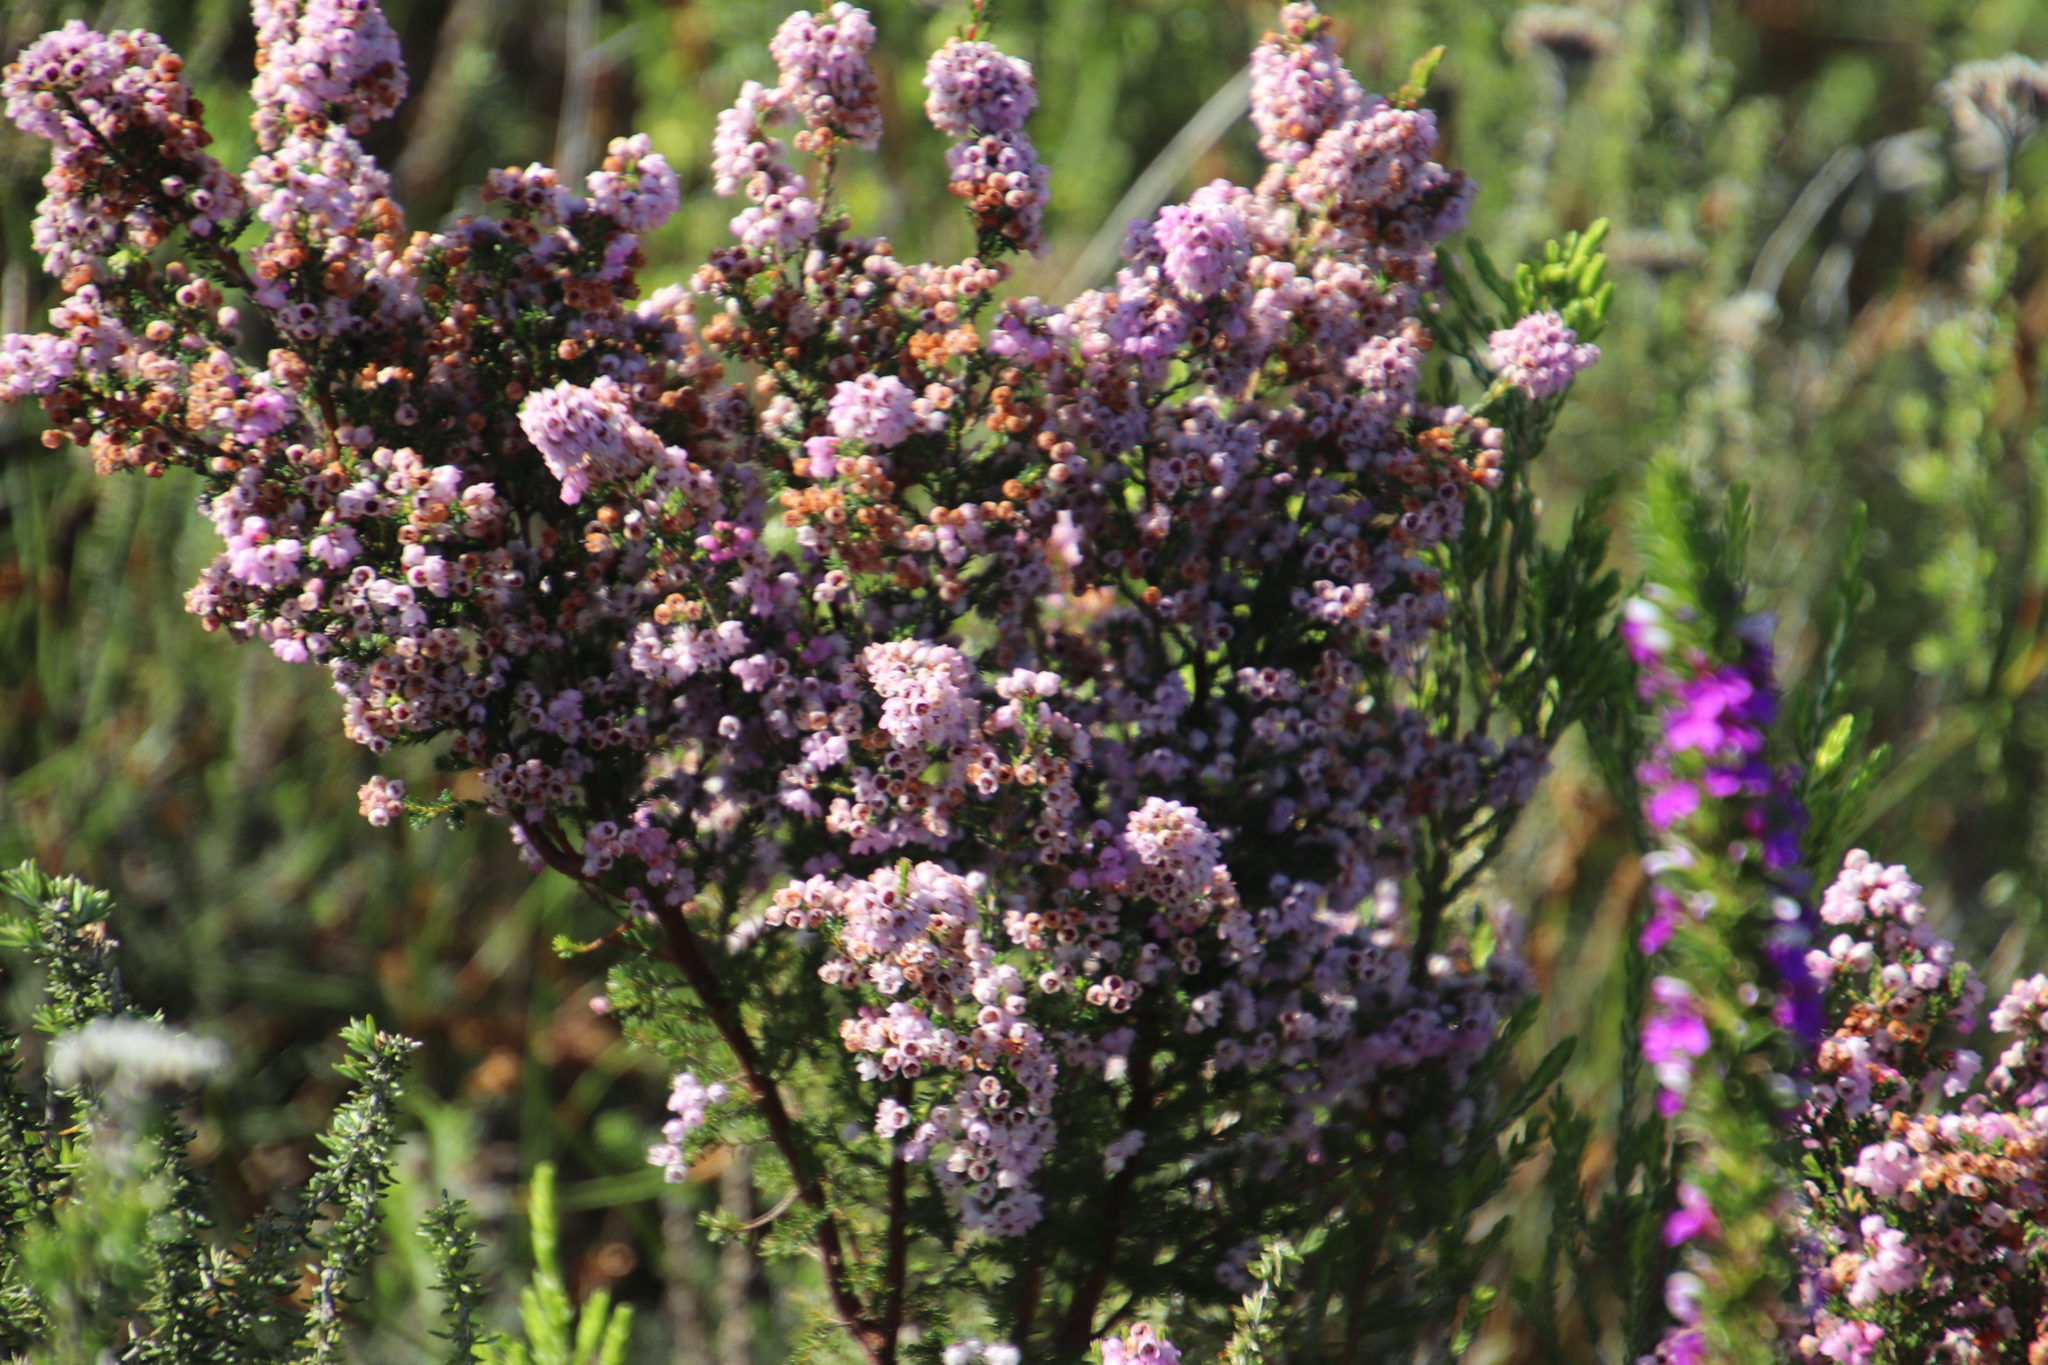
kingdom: Plantae
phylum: Tracheophyta
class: Magnoliopsida
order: Ericales
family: Ericaceae
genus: Erica
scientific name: Erica mauritanica
